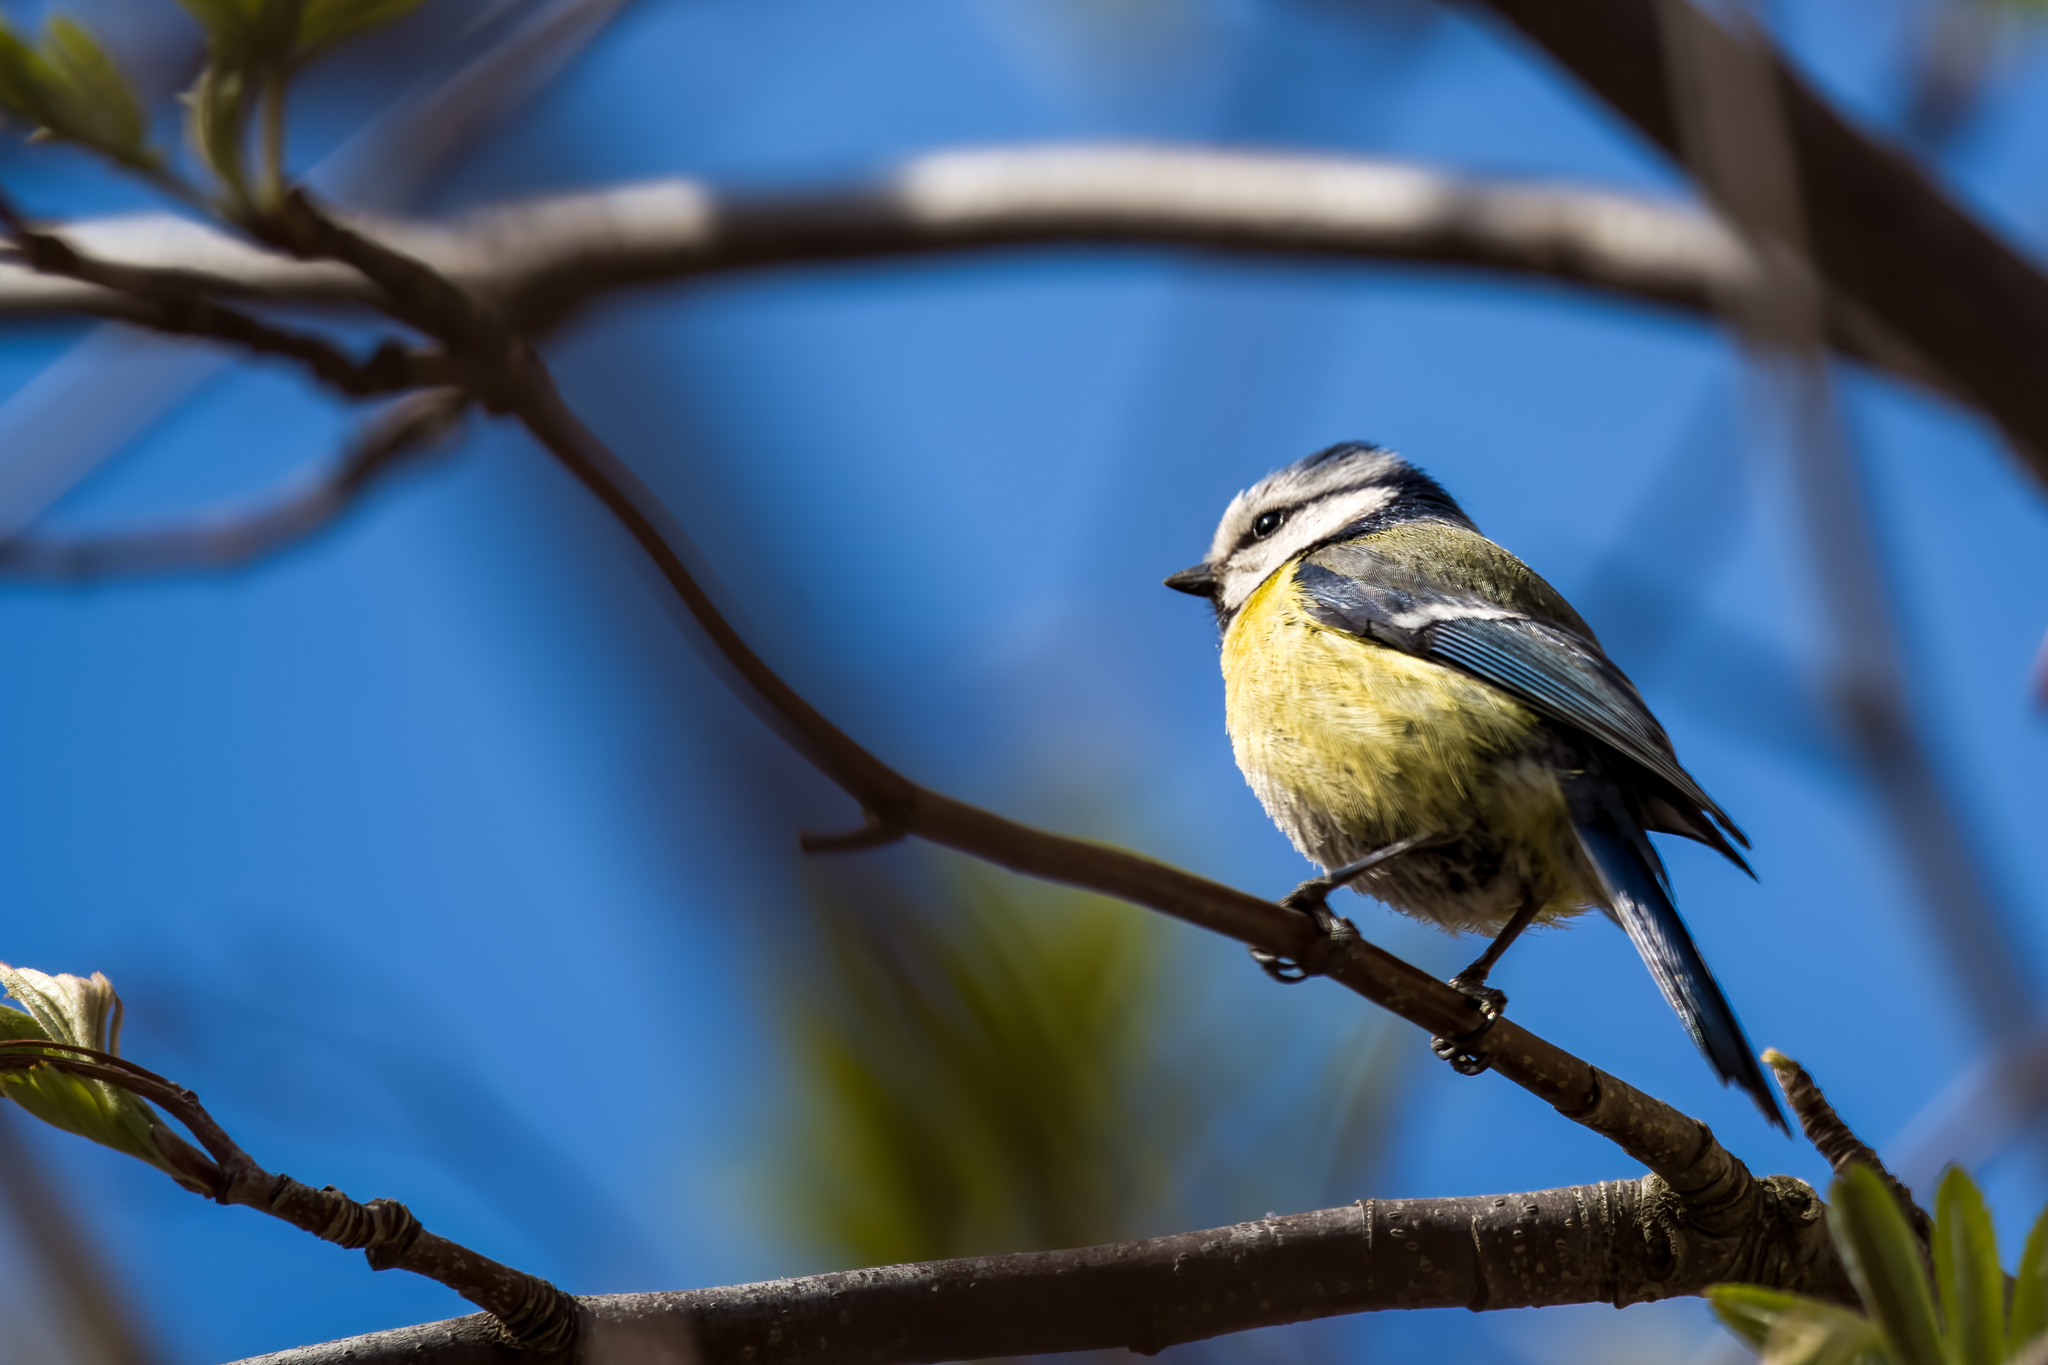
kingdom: Animalia
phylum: Chordata
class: Aves
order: Passeriformes
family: Paridae
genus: Cyanistes
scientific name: Cyanistes caeruleus
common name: Eurasian blue tit
